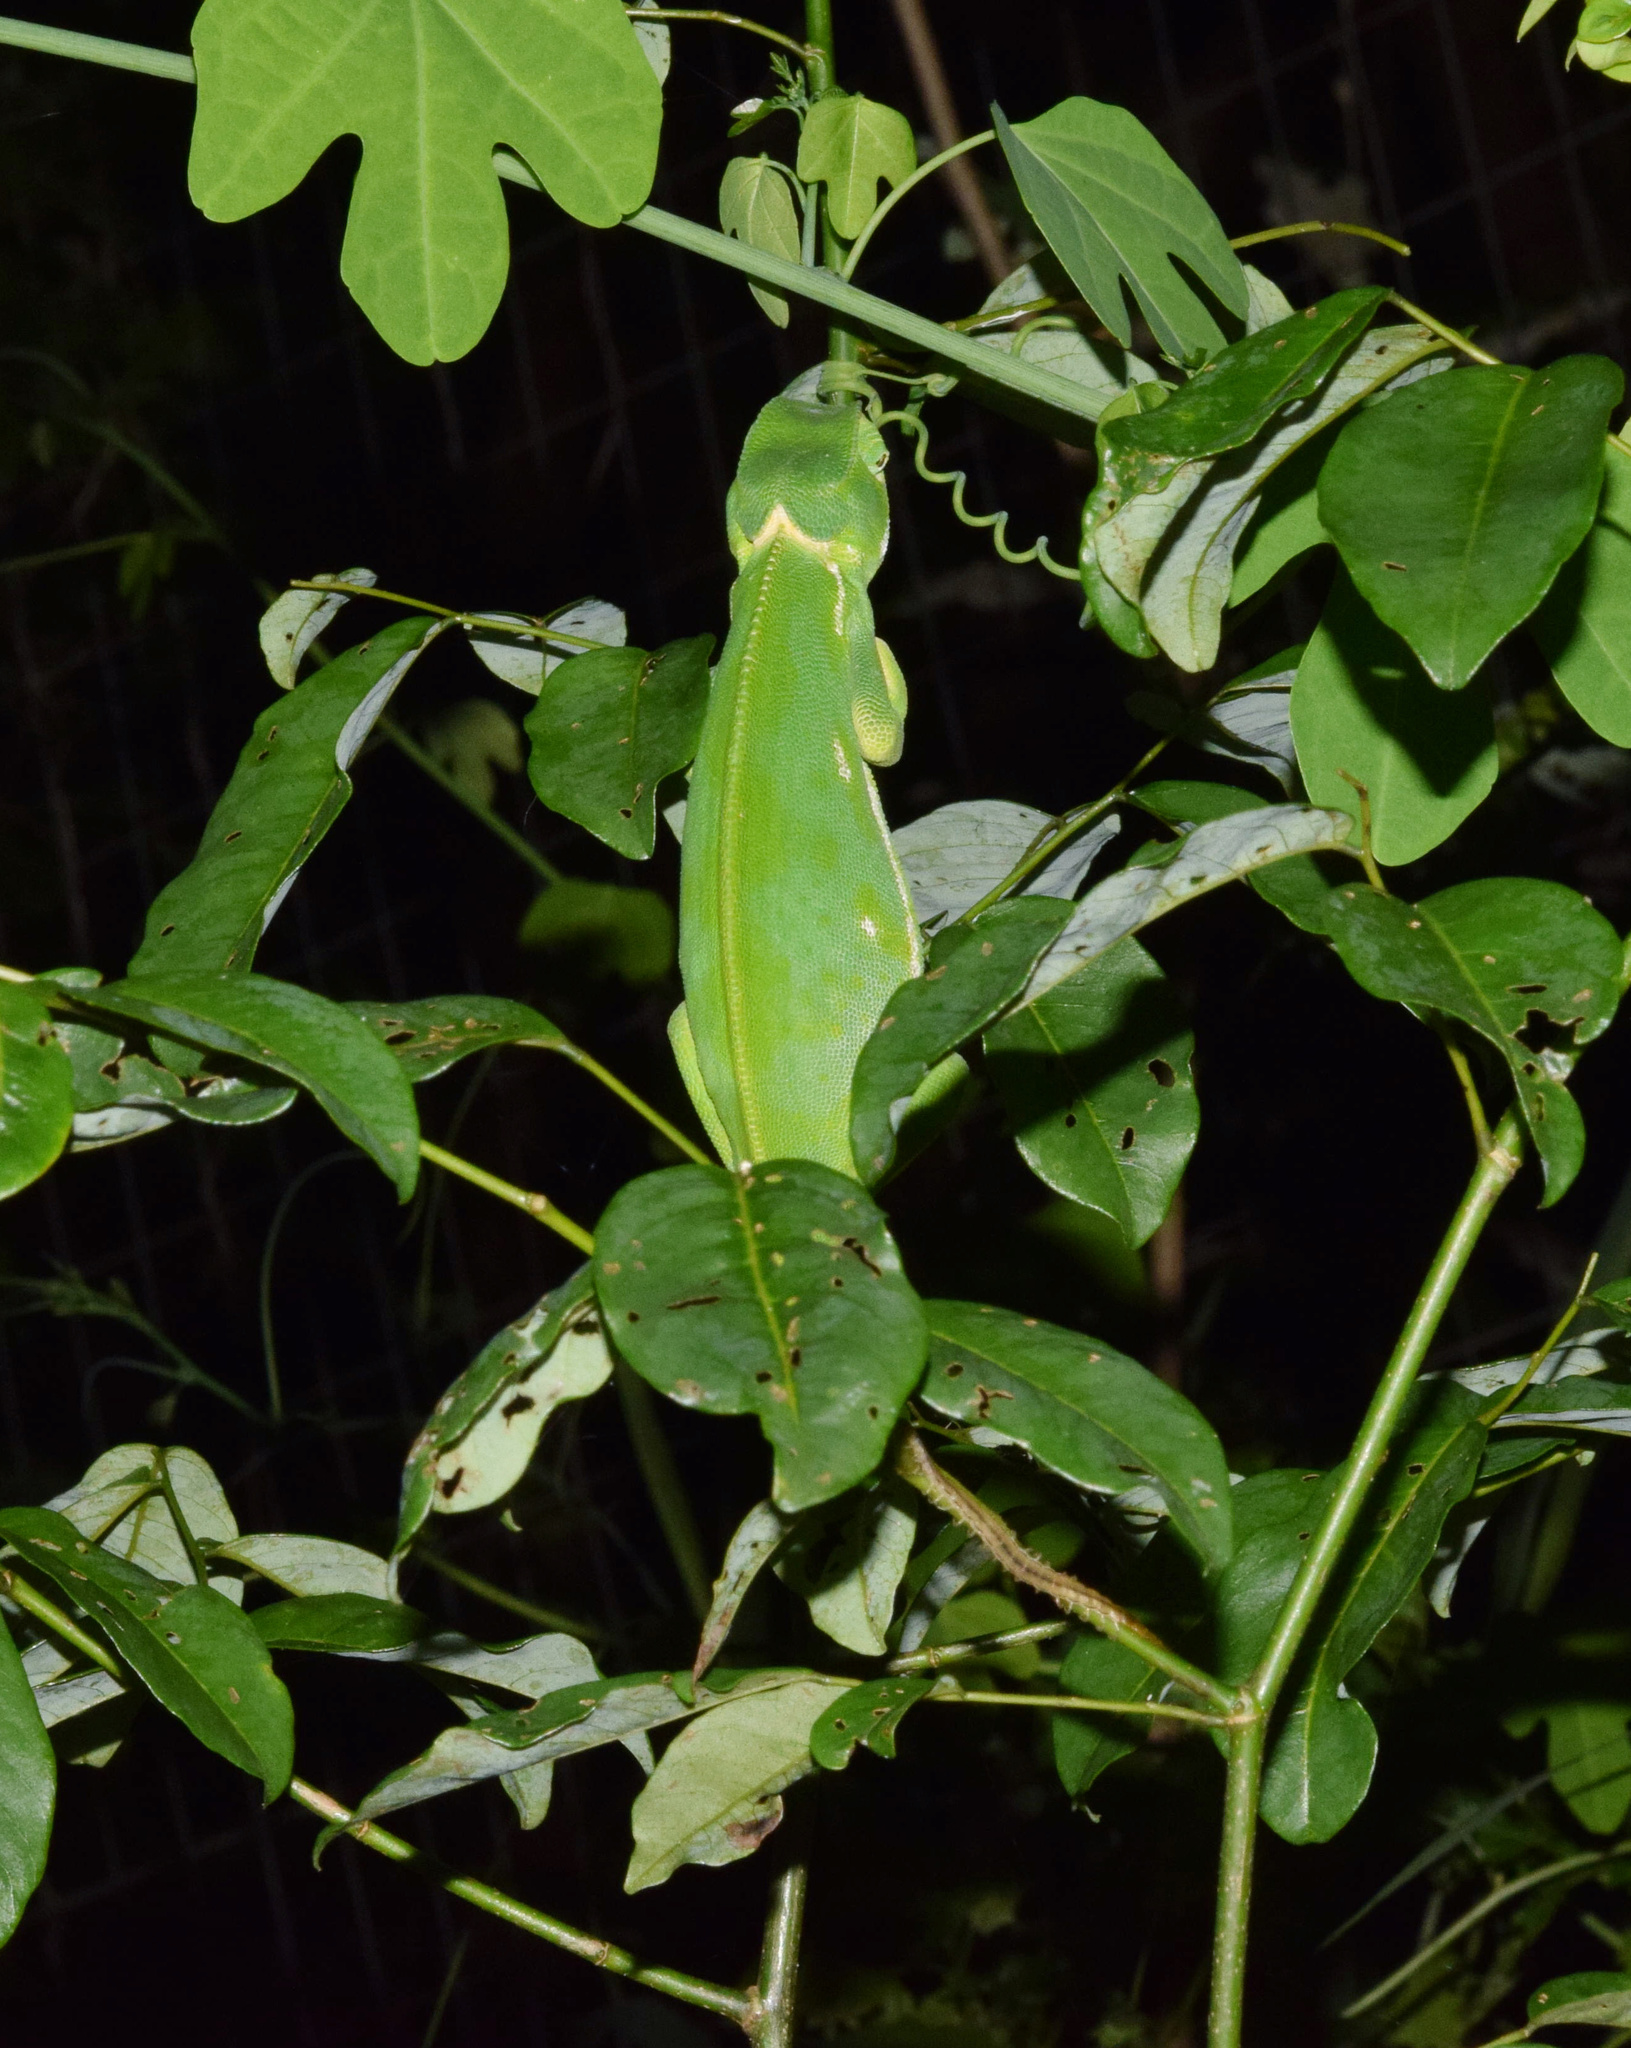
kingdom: Animalia
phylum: Chordata
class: Squamata
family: Chamaeleonidae
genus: Chamaeleo
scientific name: Chamaeleo dilepis
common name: Flapneck chameleon
